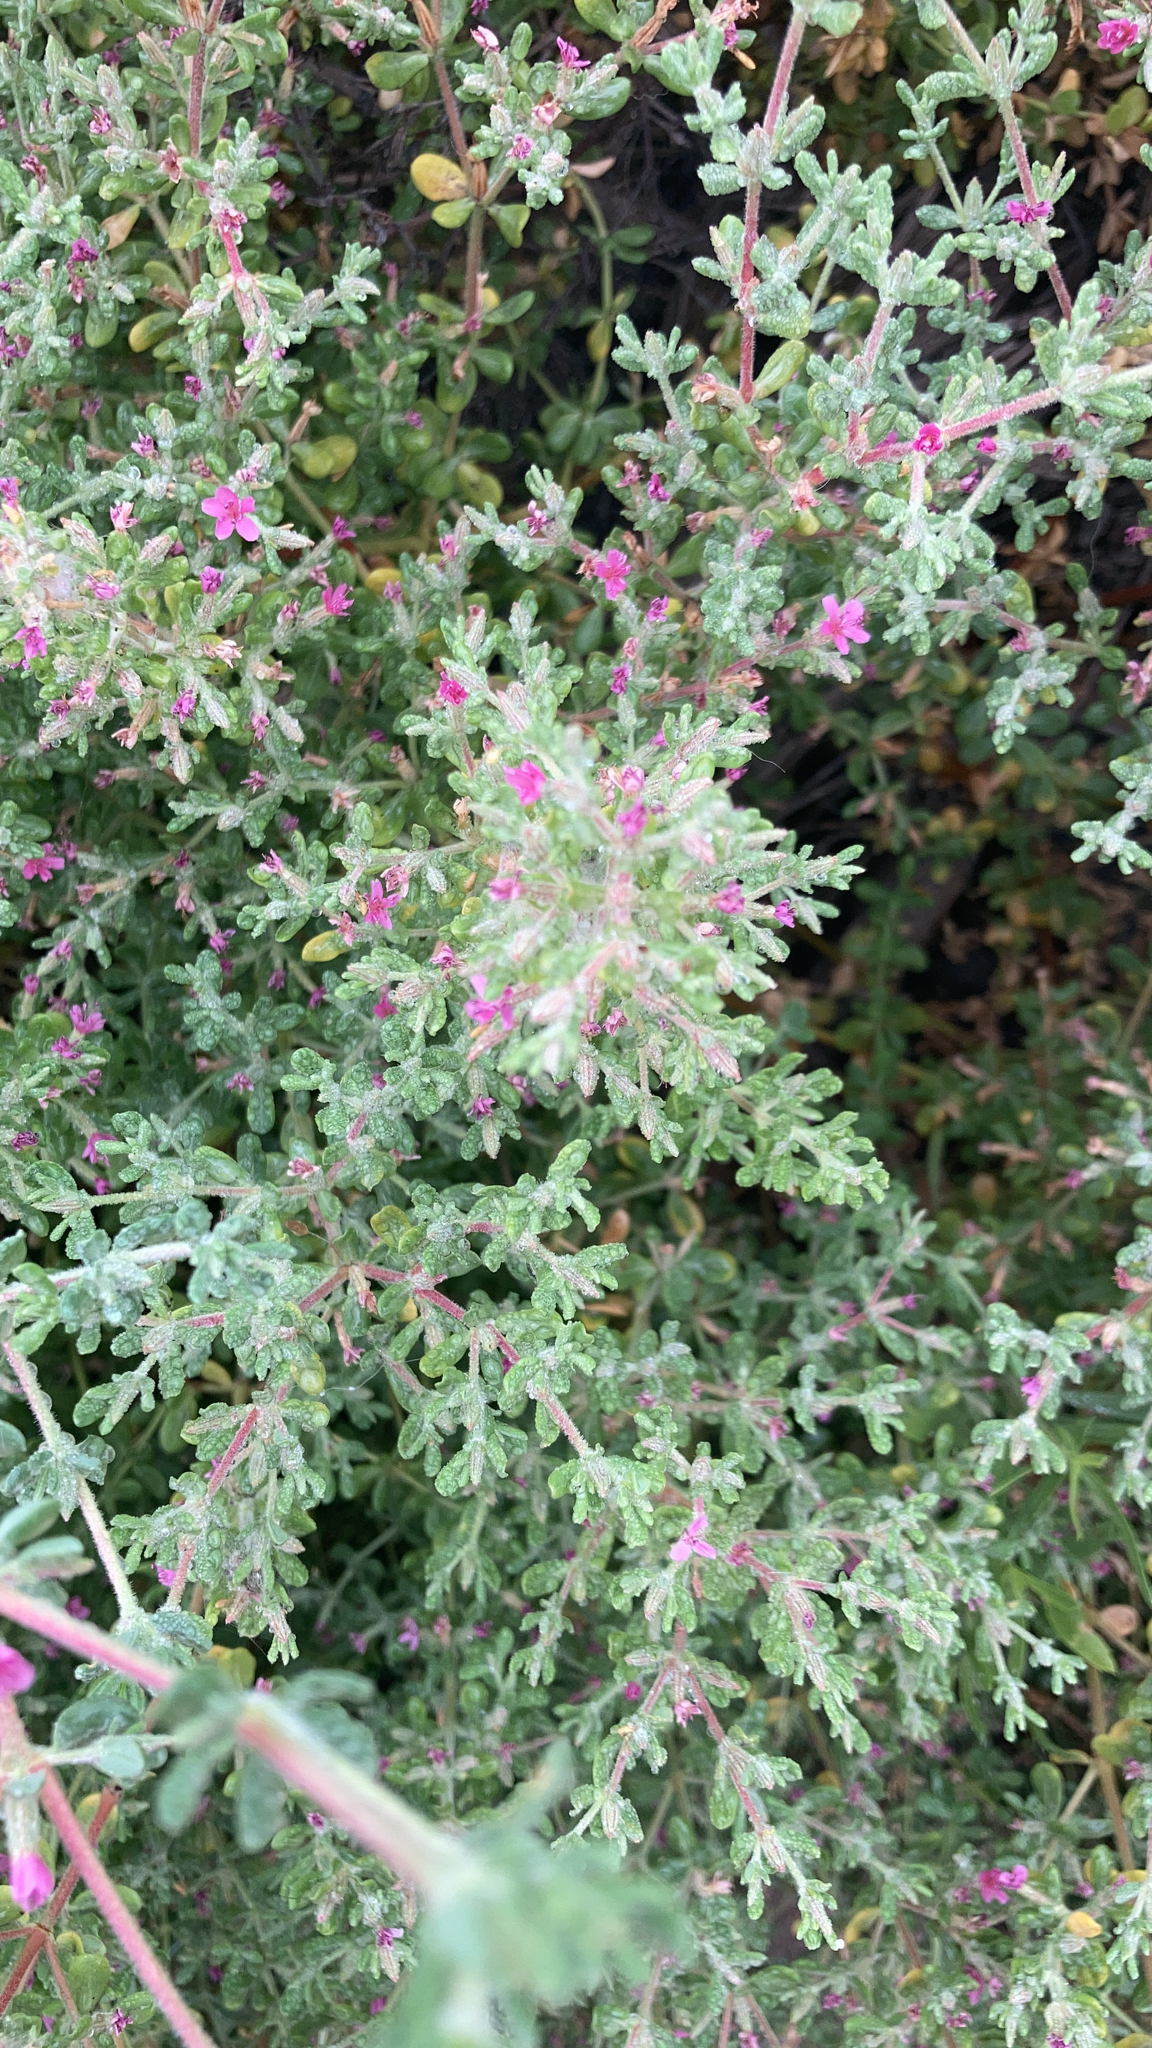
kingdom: Plantae
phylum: Tracheophyta
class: Magnoliopsida
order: Caryophyllales
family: Frankeniaceae
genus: Frankenia
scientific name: Frankenia salina
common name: Alkali seaheath
